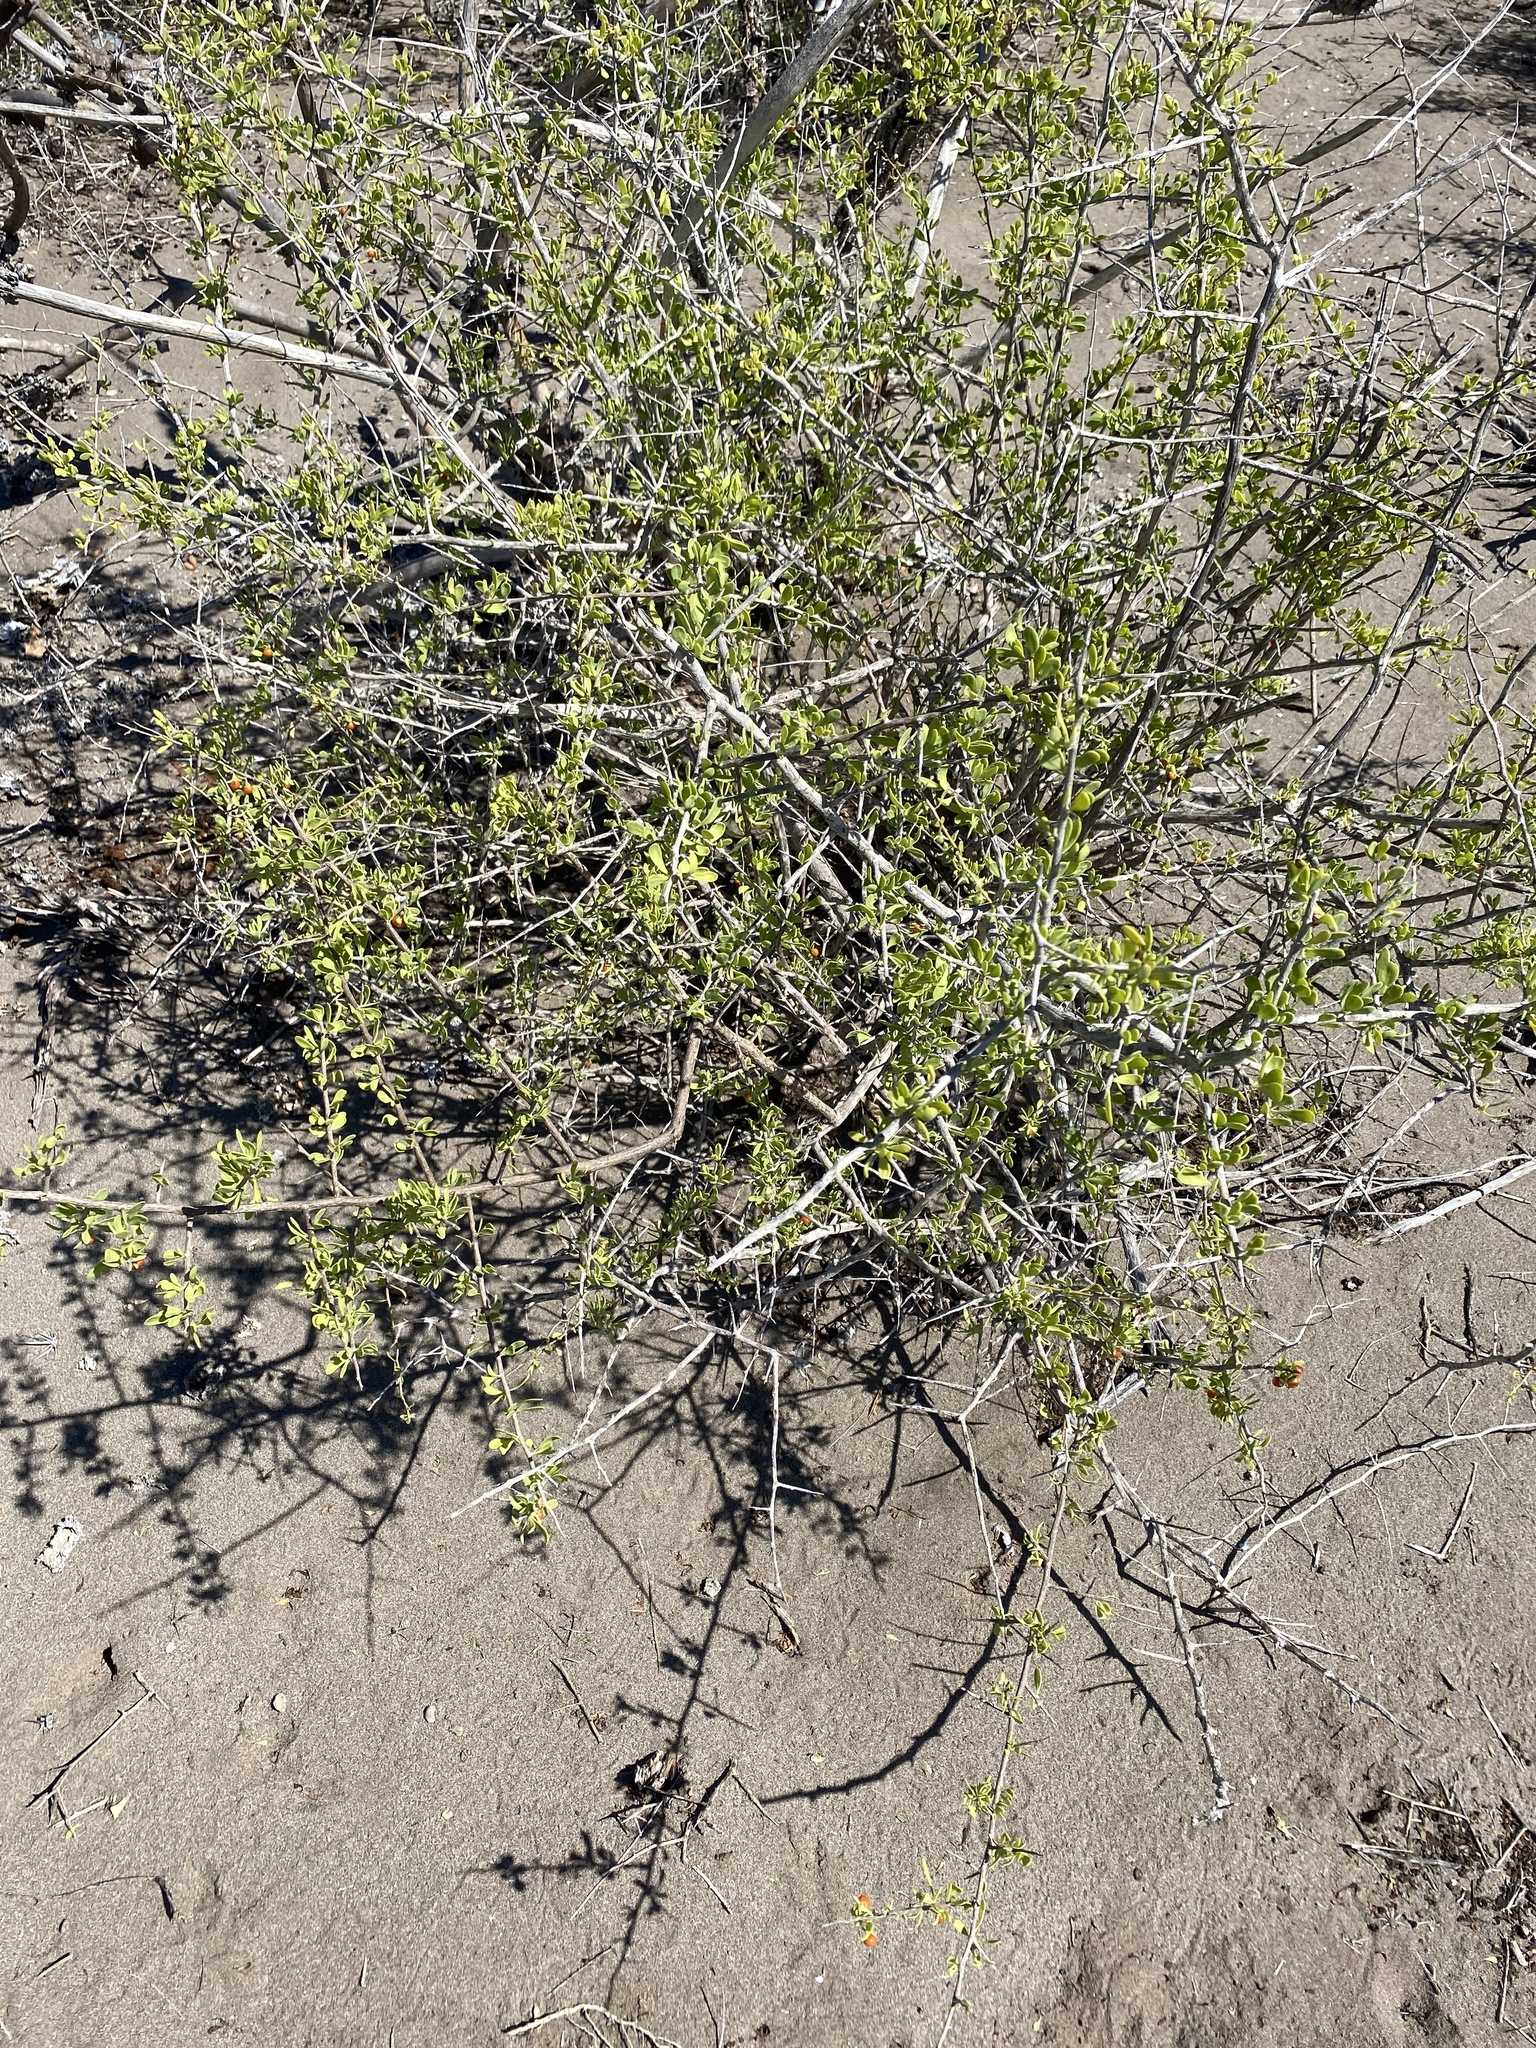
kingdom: Plantae
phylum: Tracheophyta
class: Magnoliopsida
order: Solanales
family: Solanaceae
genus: Lycium
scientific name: Lycium brevipes
